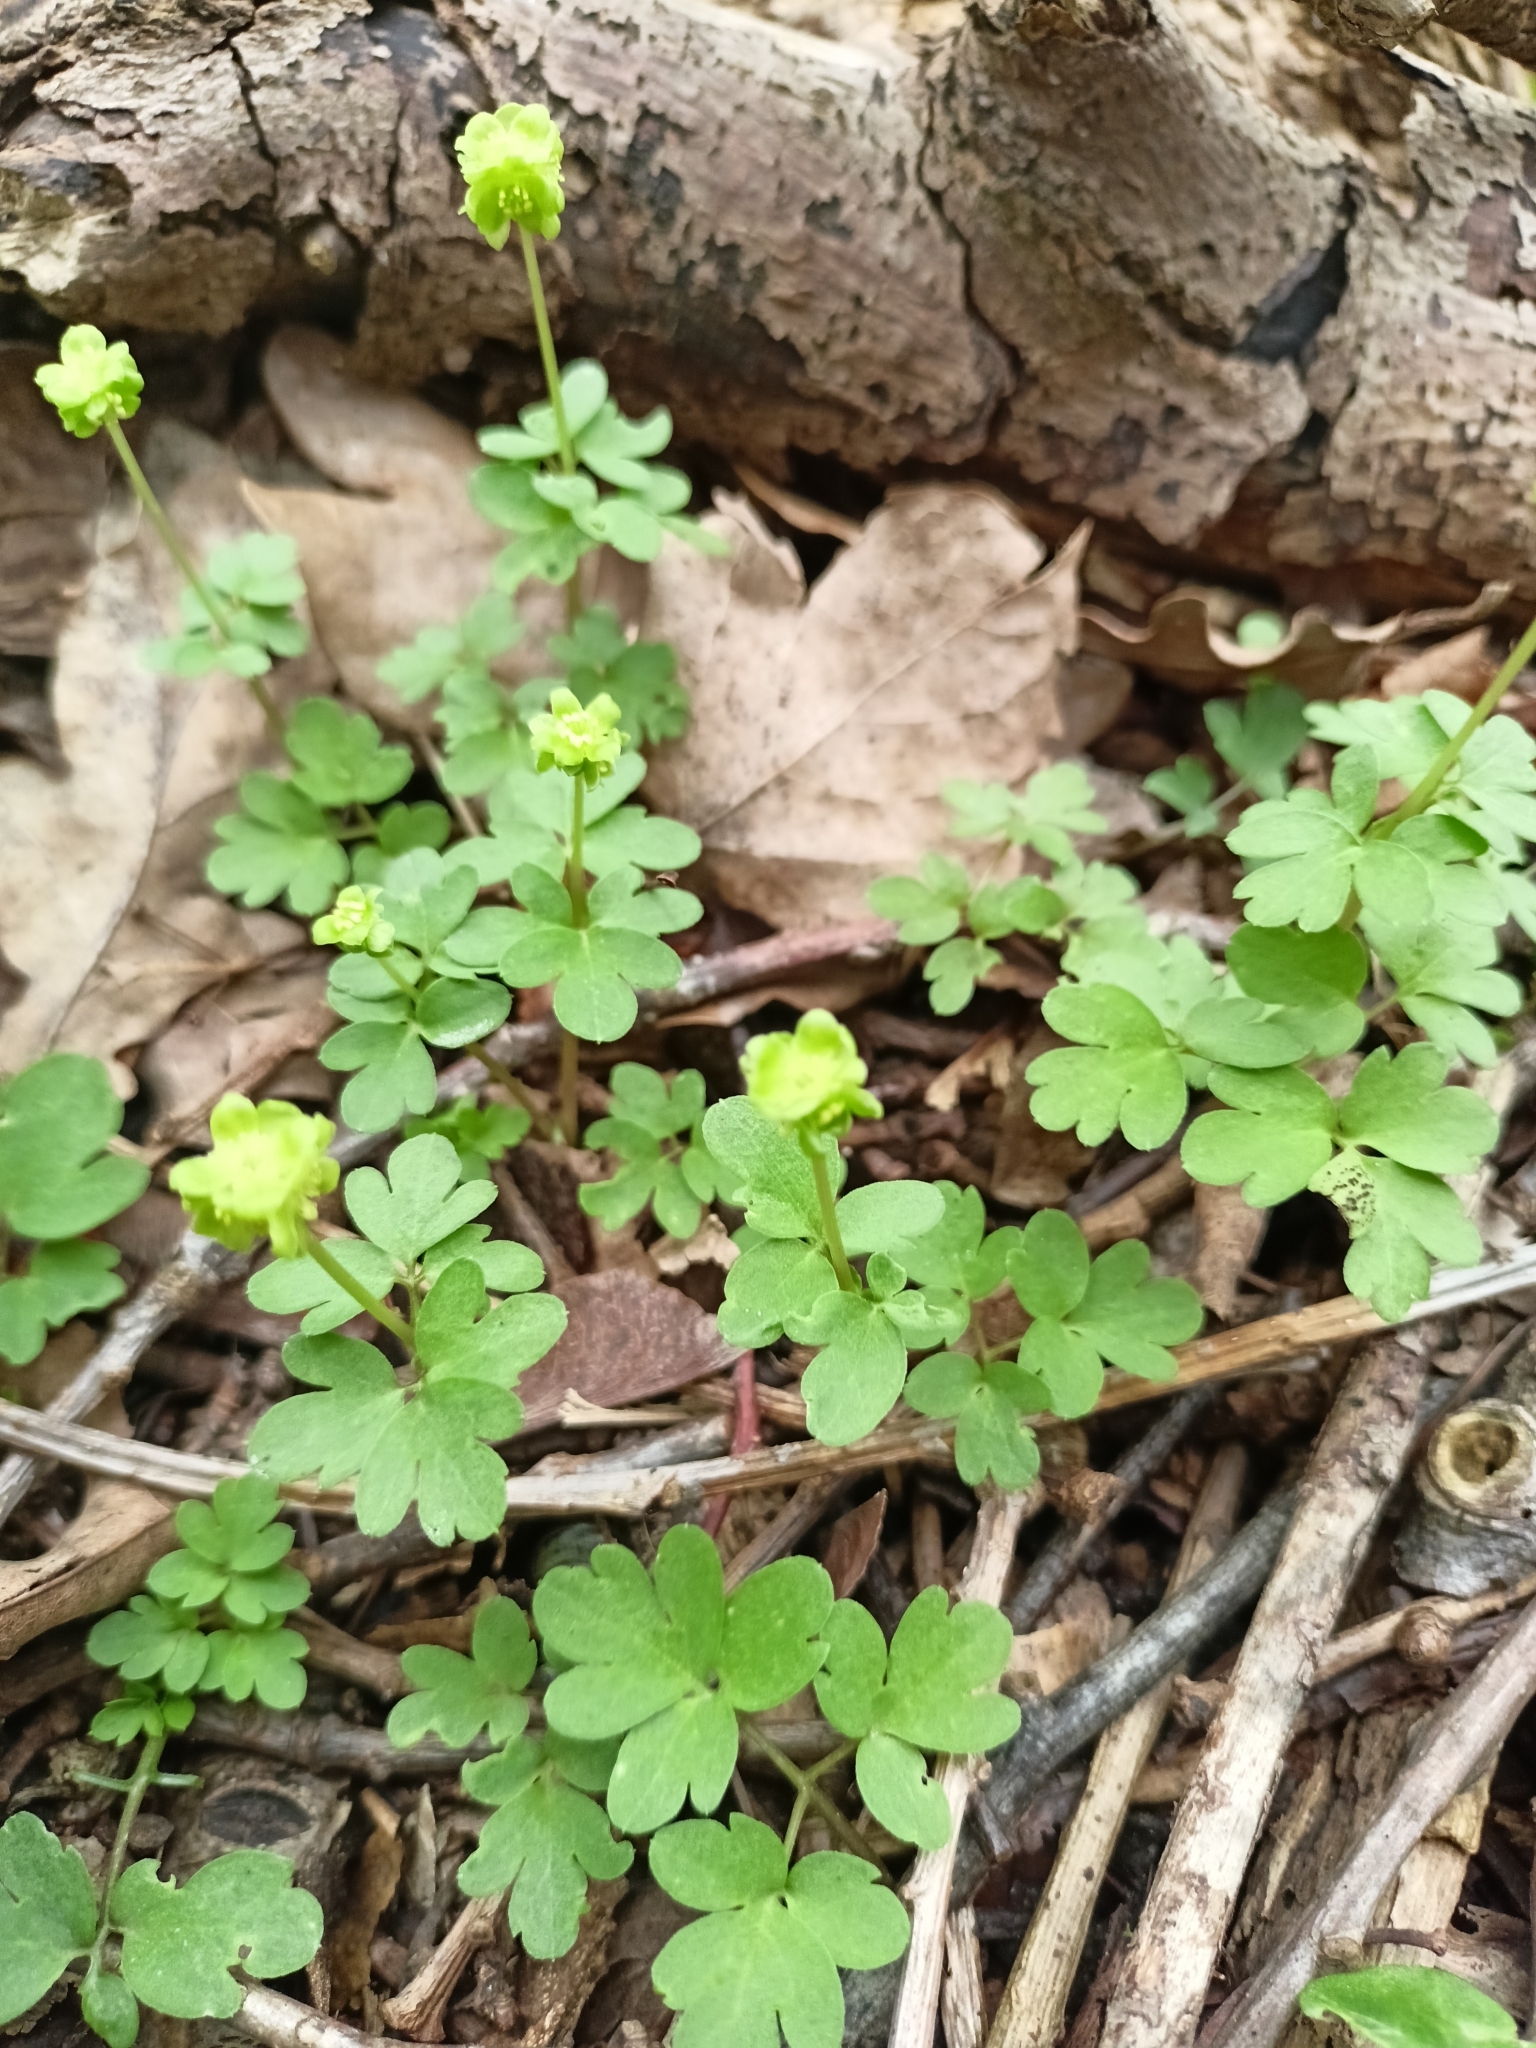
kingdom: Plantae
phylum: Tracheophyta
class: Magnoliopsida
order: Dipsacales
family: Viburnaceae
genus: Adoxa
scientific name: Adoxa moschatellina
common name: Moschatel
